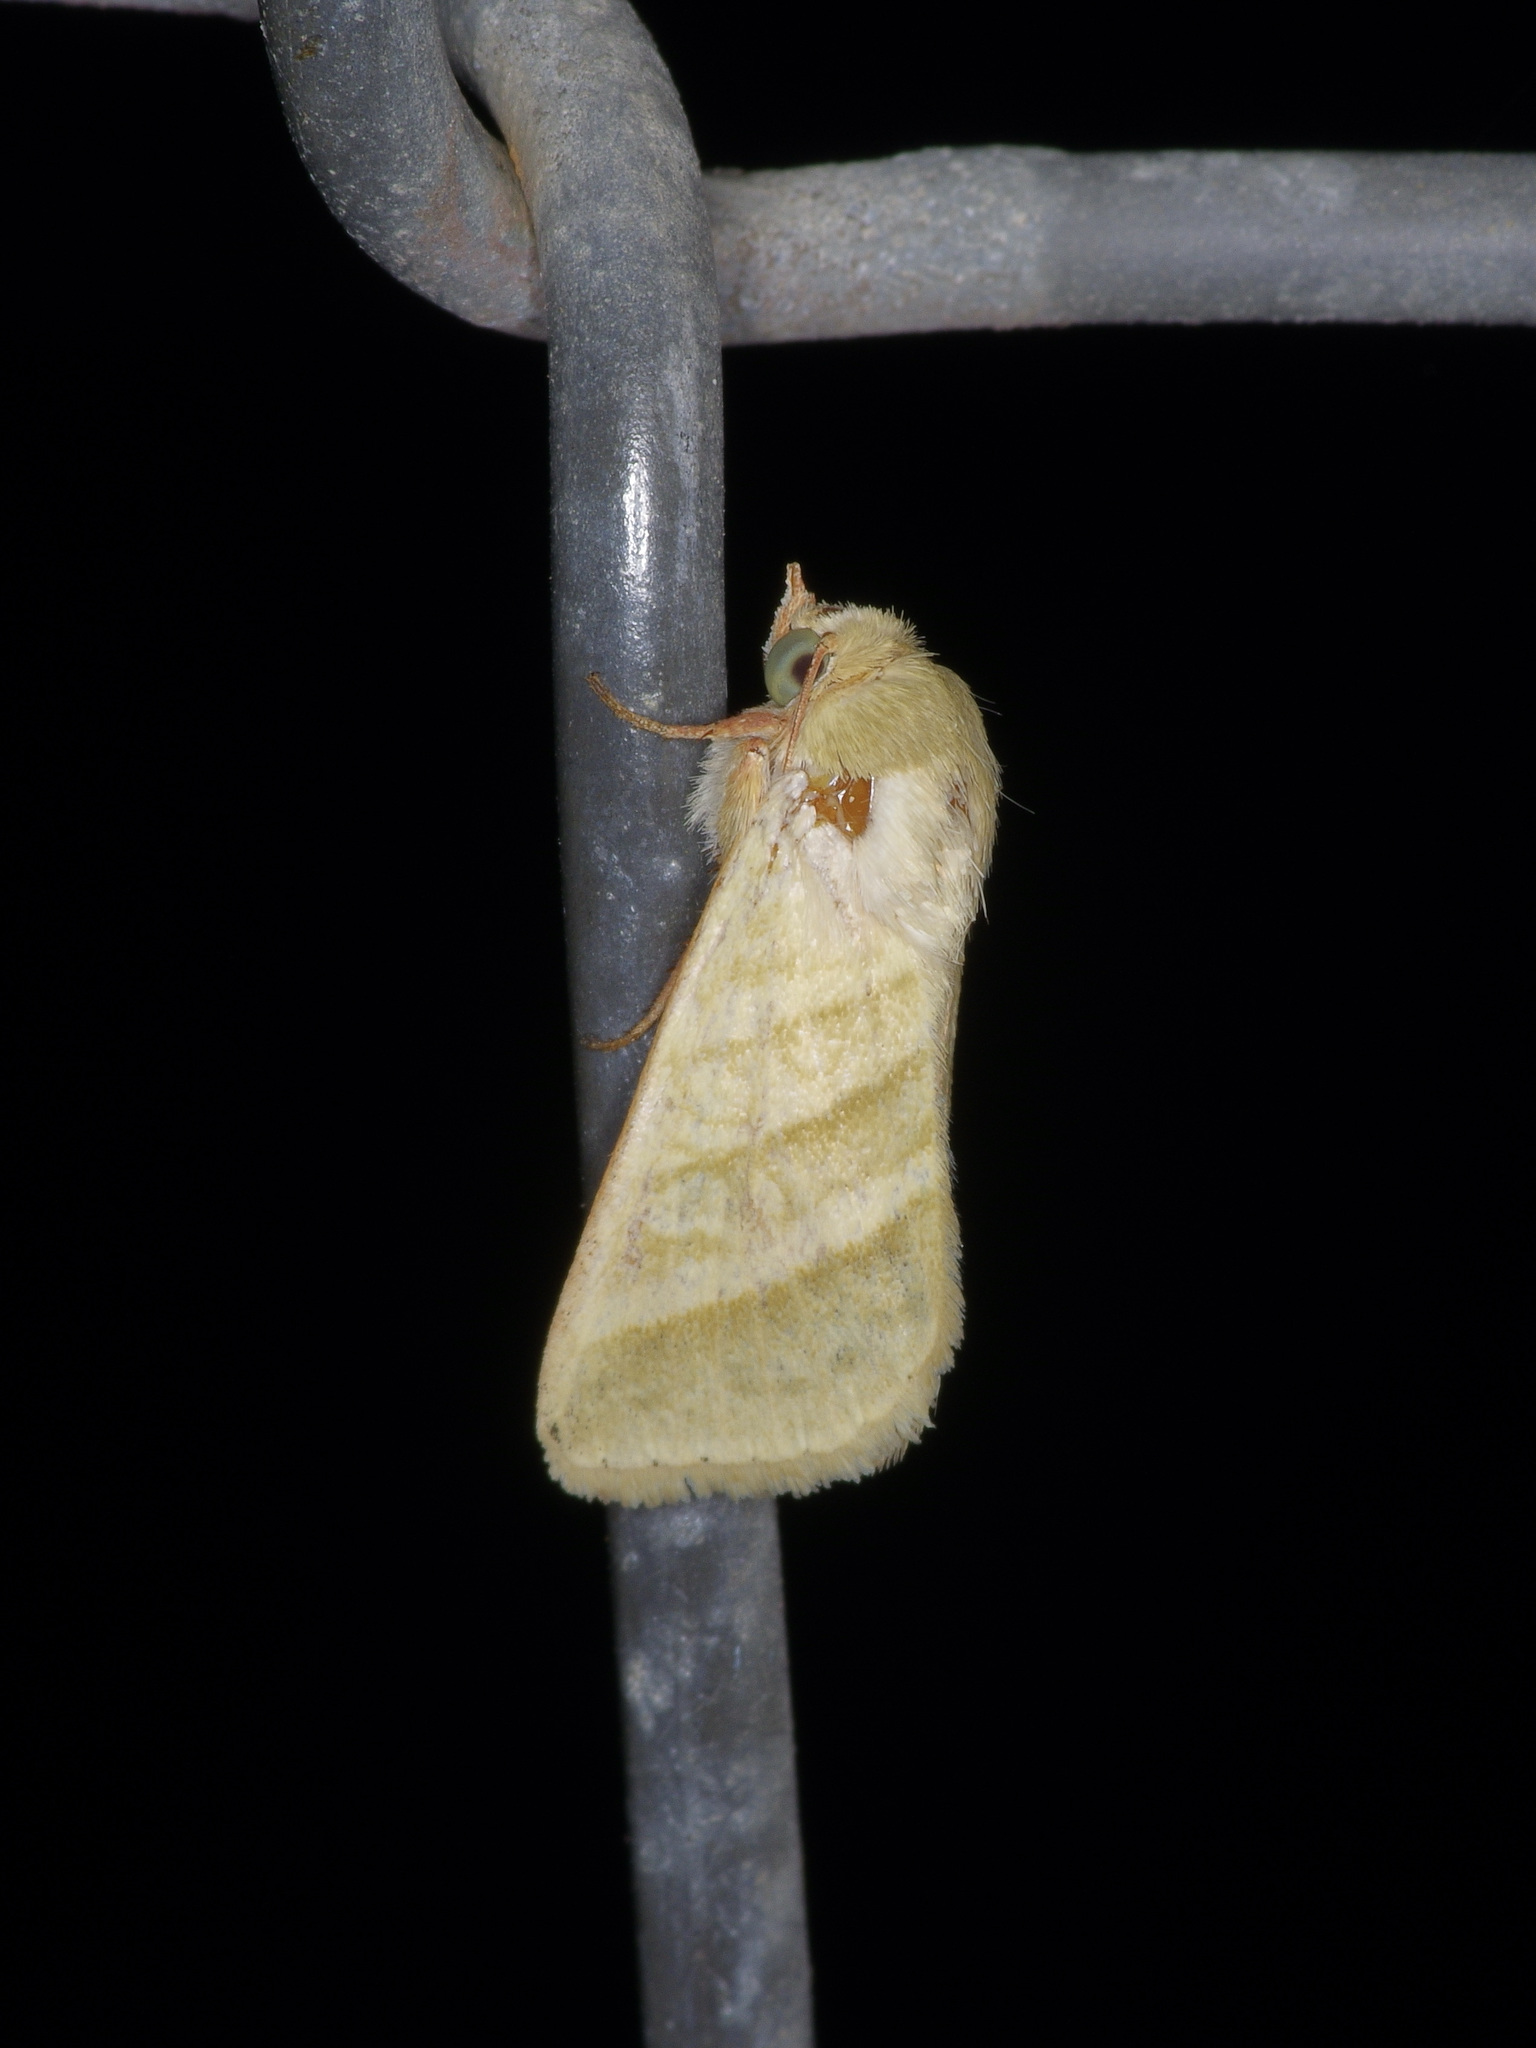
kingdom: Animalia
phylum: Arthropoda
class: Insecta
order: Lepidoptera
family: Noctuidae
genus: Chloridea
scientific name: Chloridea virescens
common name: Tobacco budworm
